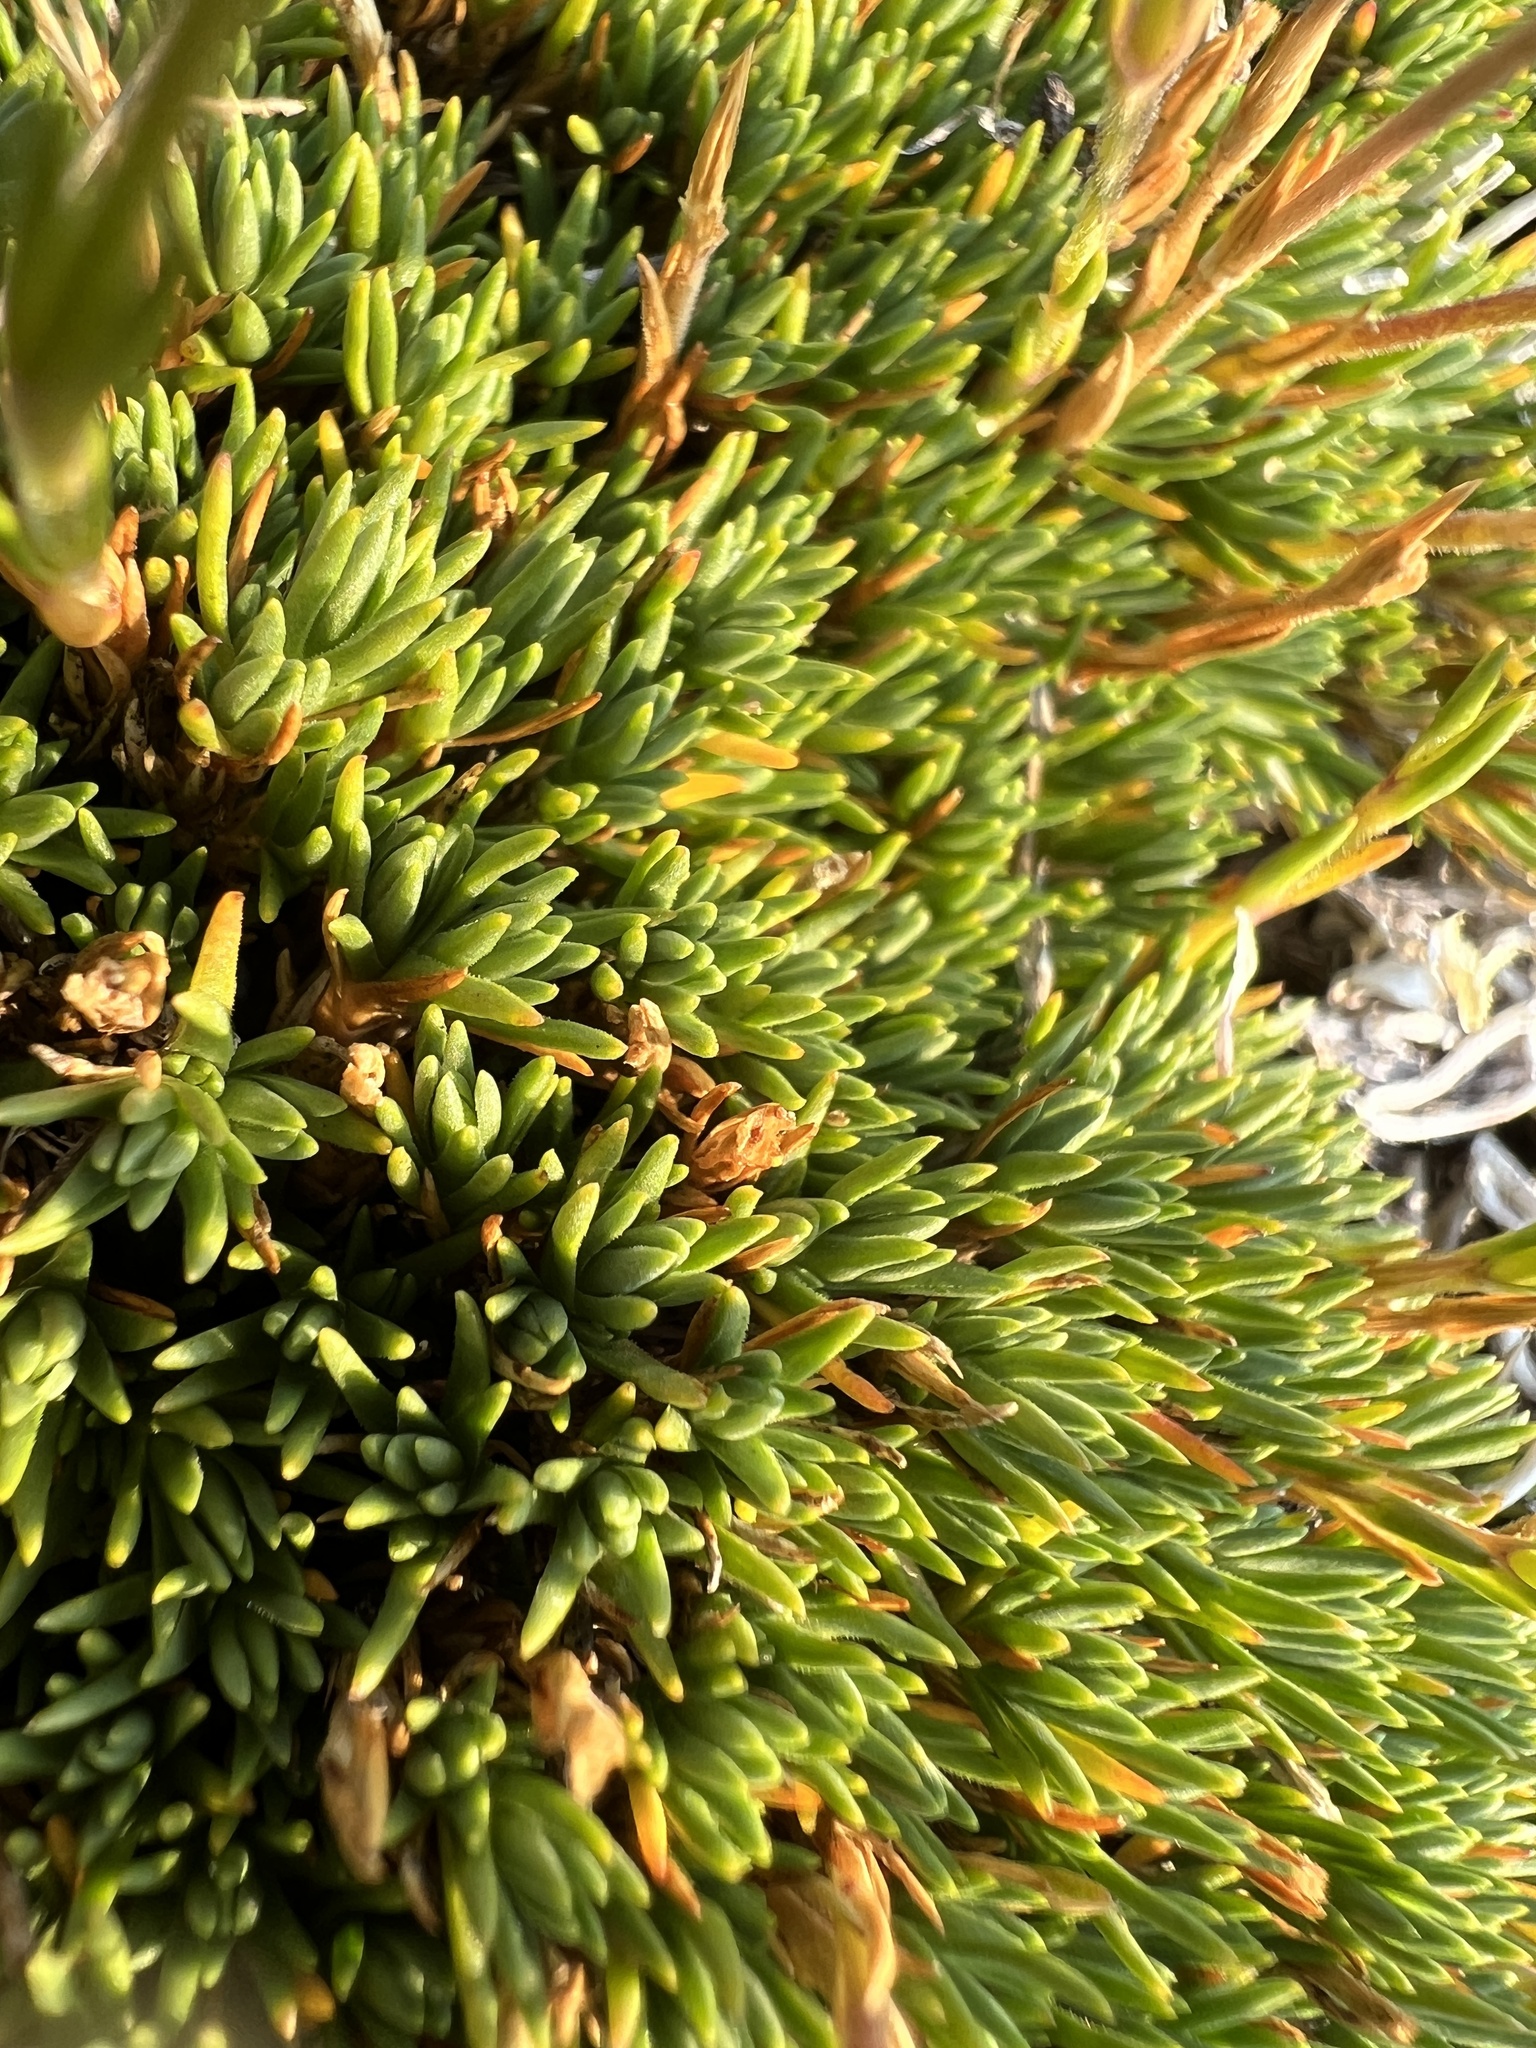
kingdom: Plantae
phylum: Tracheophyta
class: Magnoliopsida
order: Caryophyllales
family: Caryophyllaceae
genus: Cherleria
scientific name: Cherleria obtusiloba
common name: Alpine stitchwort
